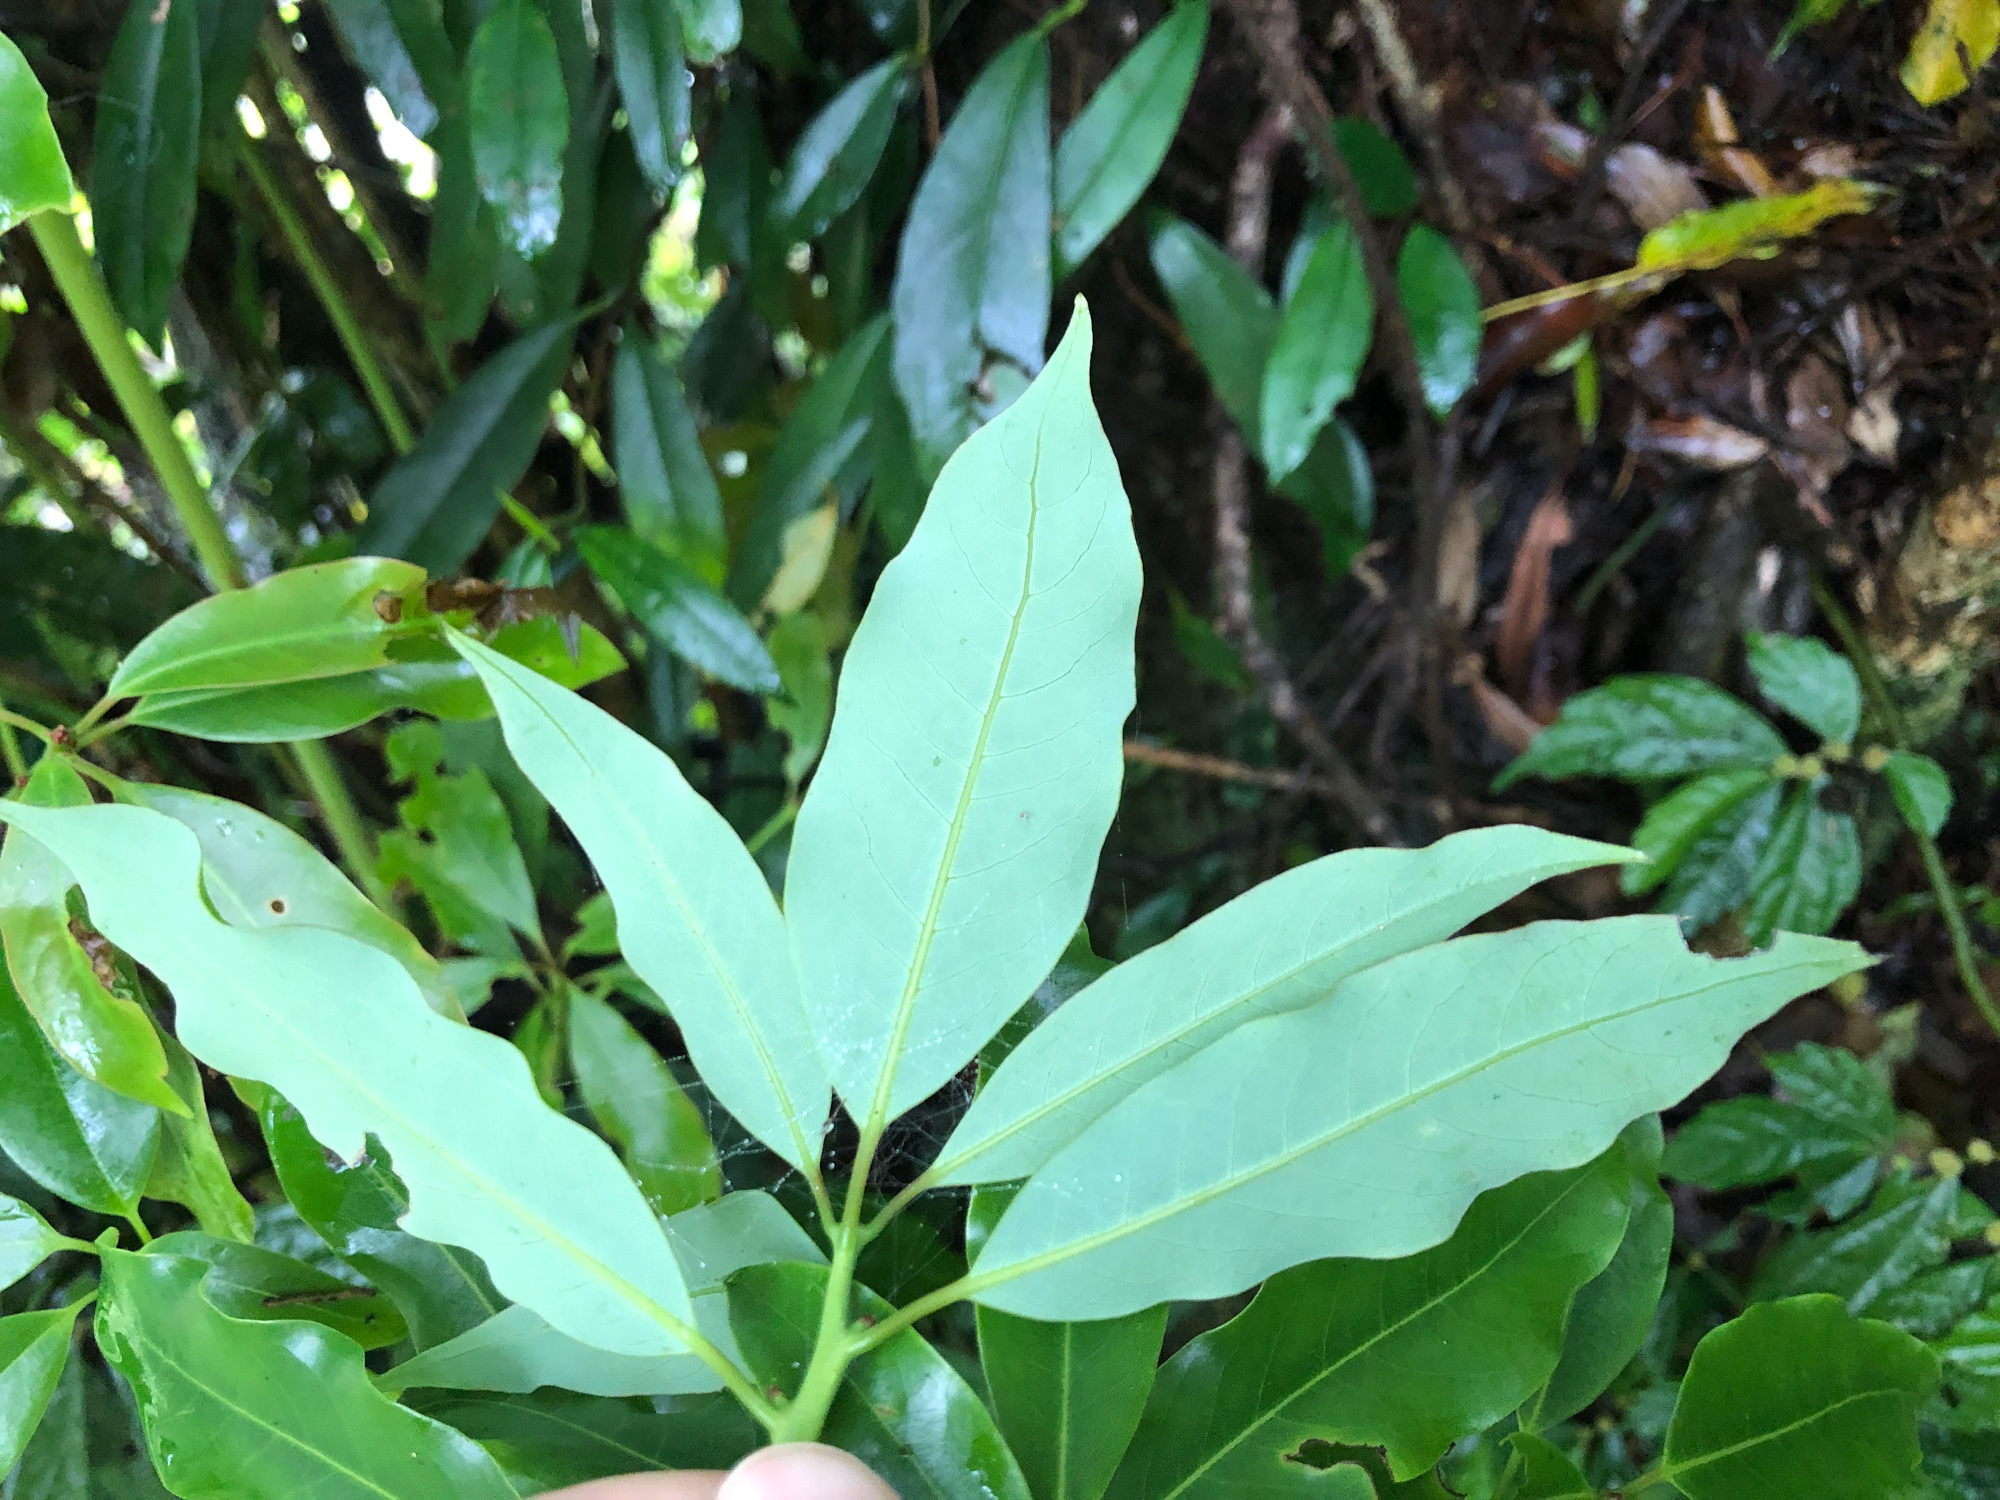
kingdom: Plantae
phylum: Tracheophyta
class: Magnoliopsida
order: Laurales
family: Lauraceae
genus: Machilus
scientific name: Machilus japonica
